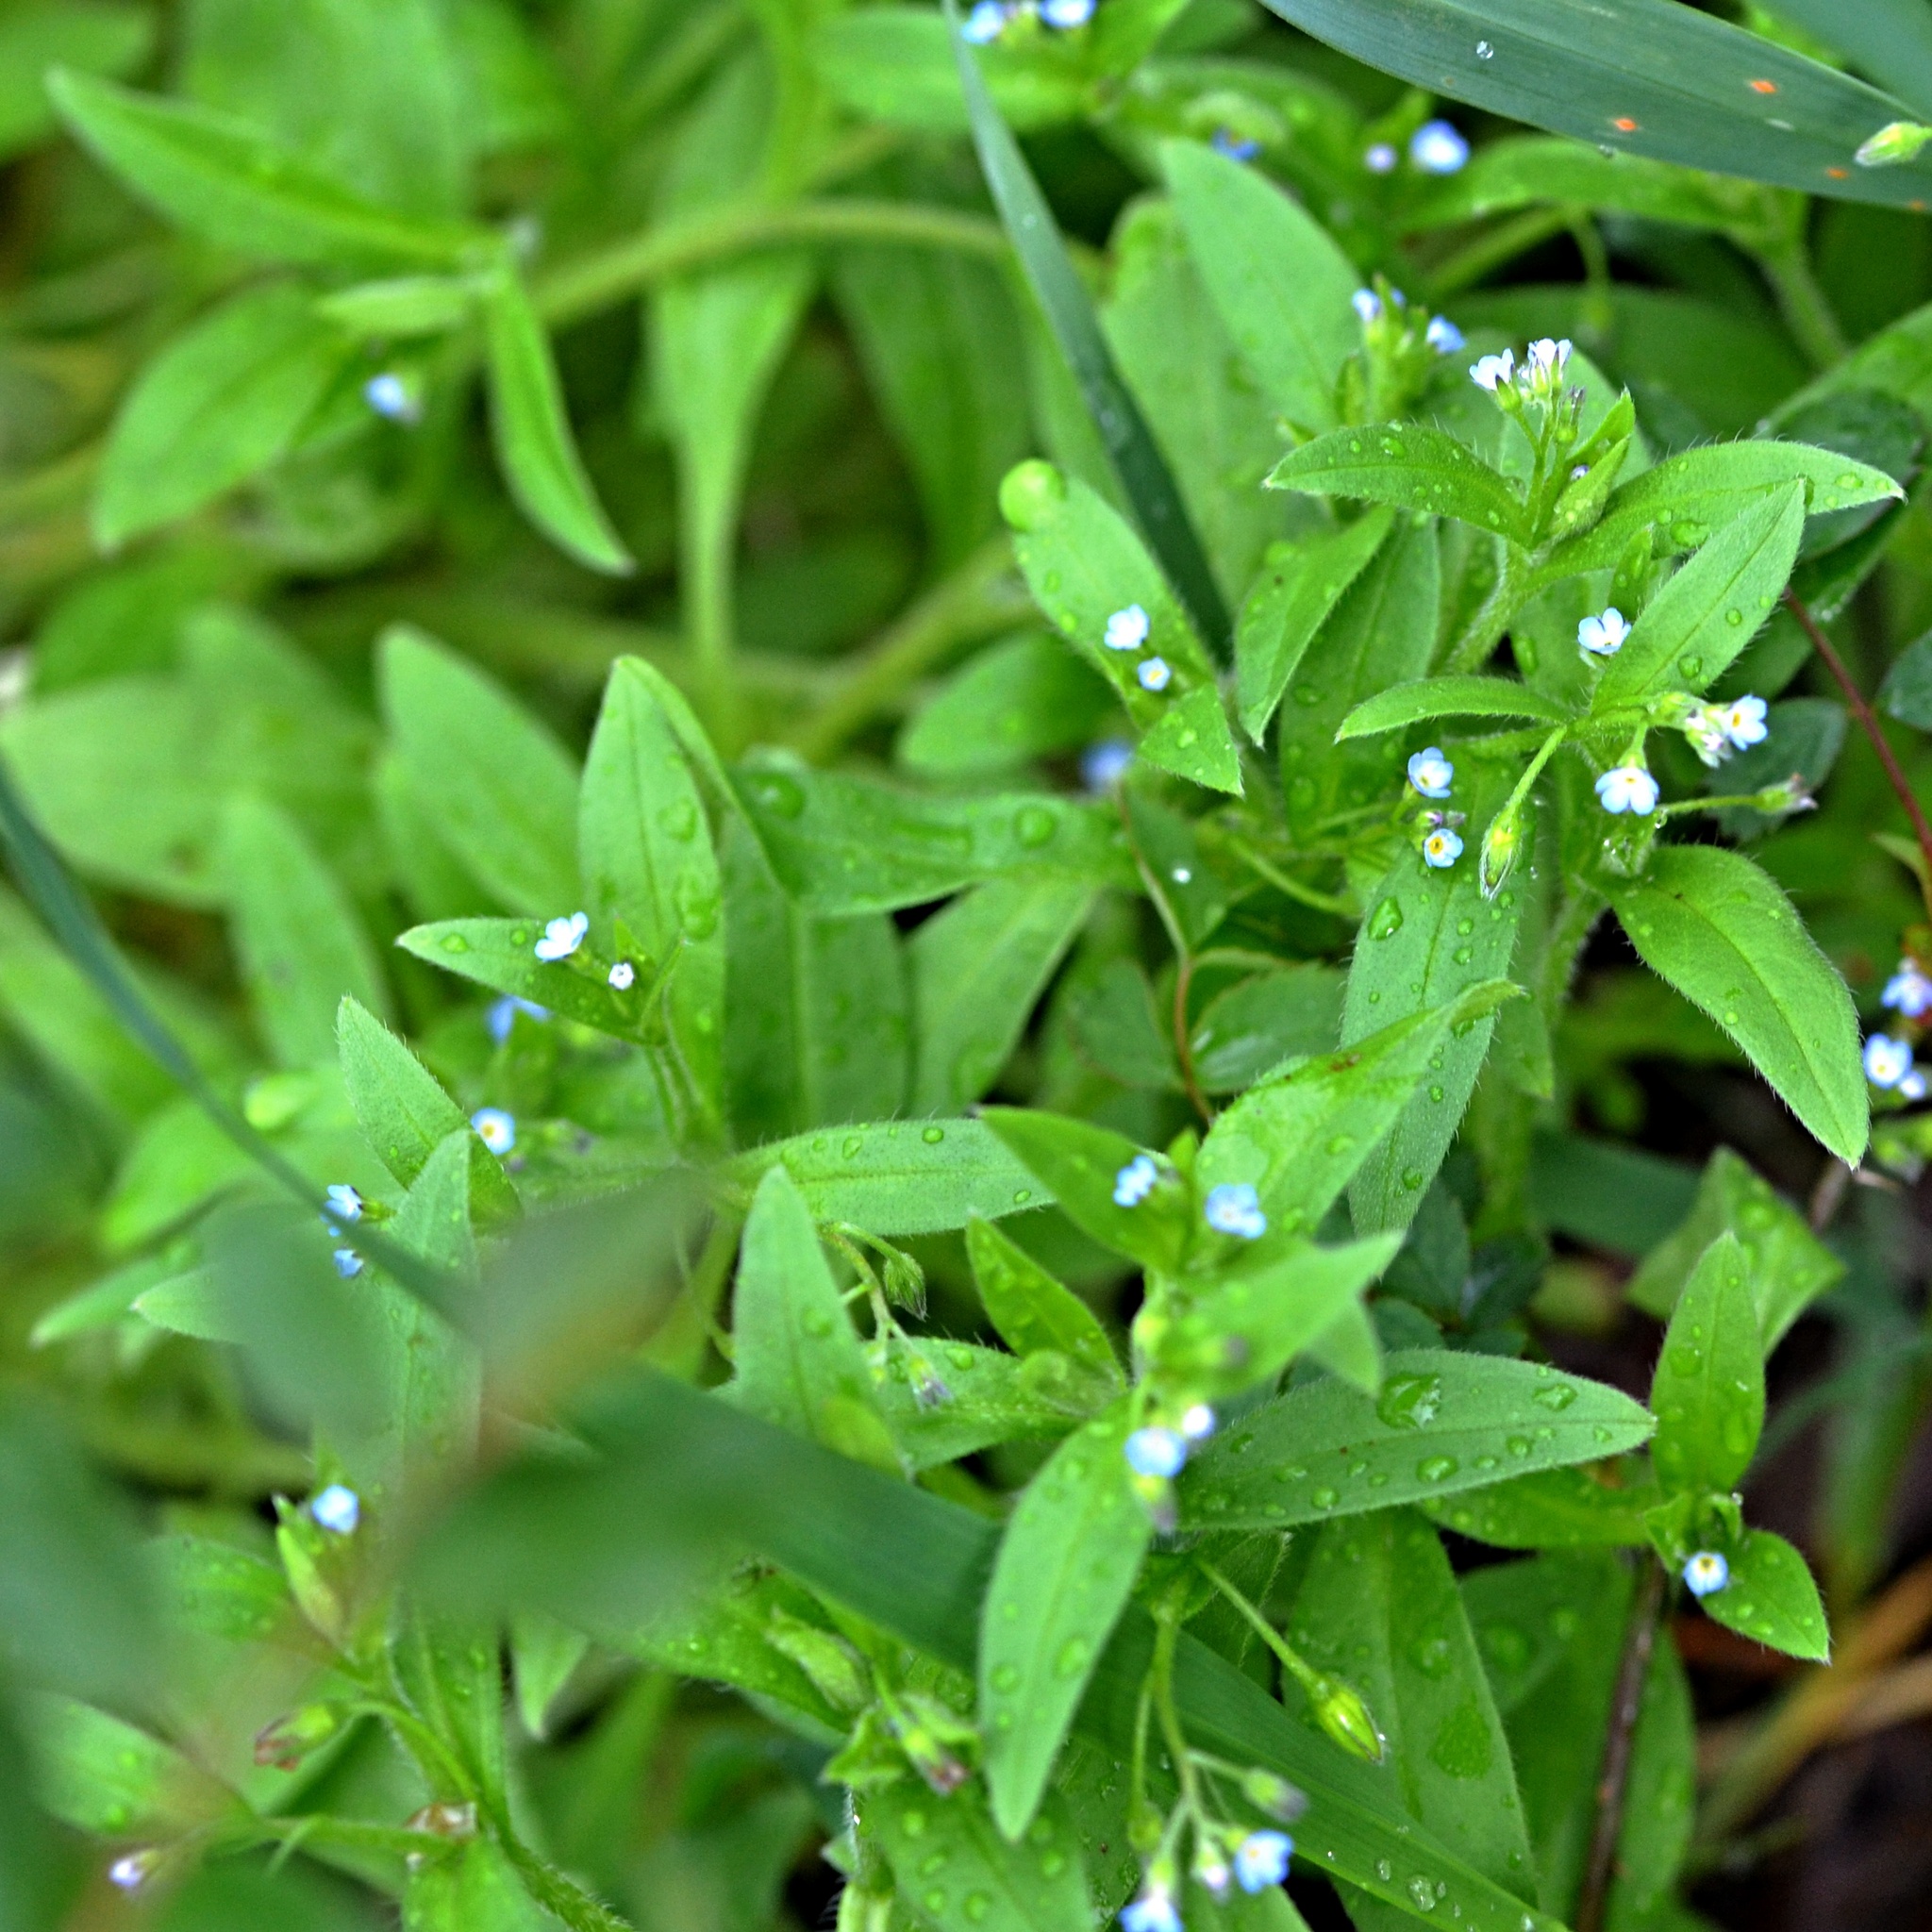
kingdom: Plantae
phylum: Tracheophyta
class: Magnoliopsida
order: Boraginales
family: Boraginaceae
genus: Myosotis
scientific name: Myosotis sparsiflora
